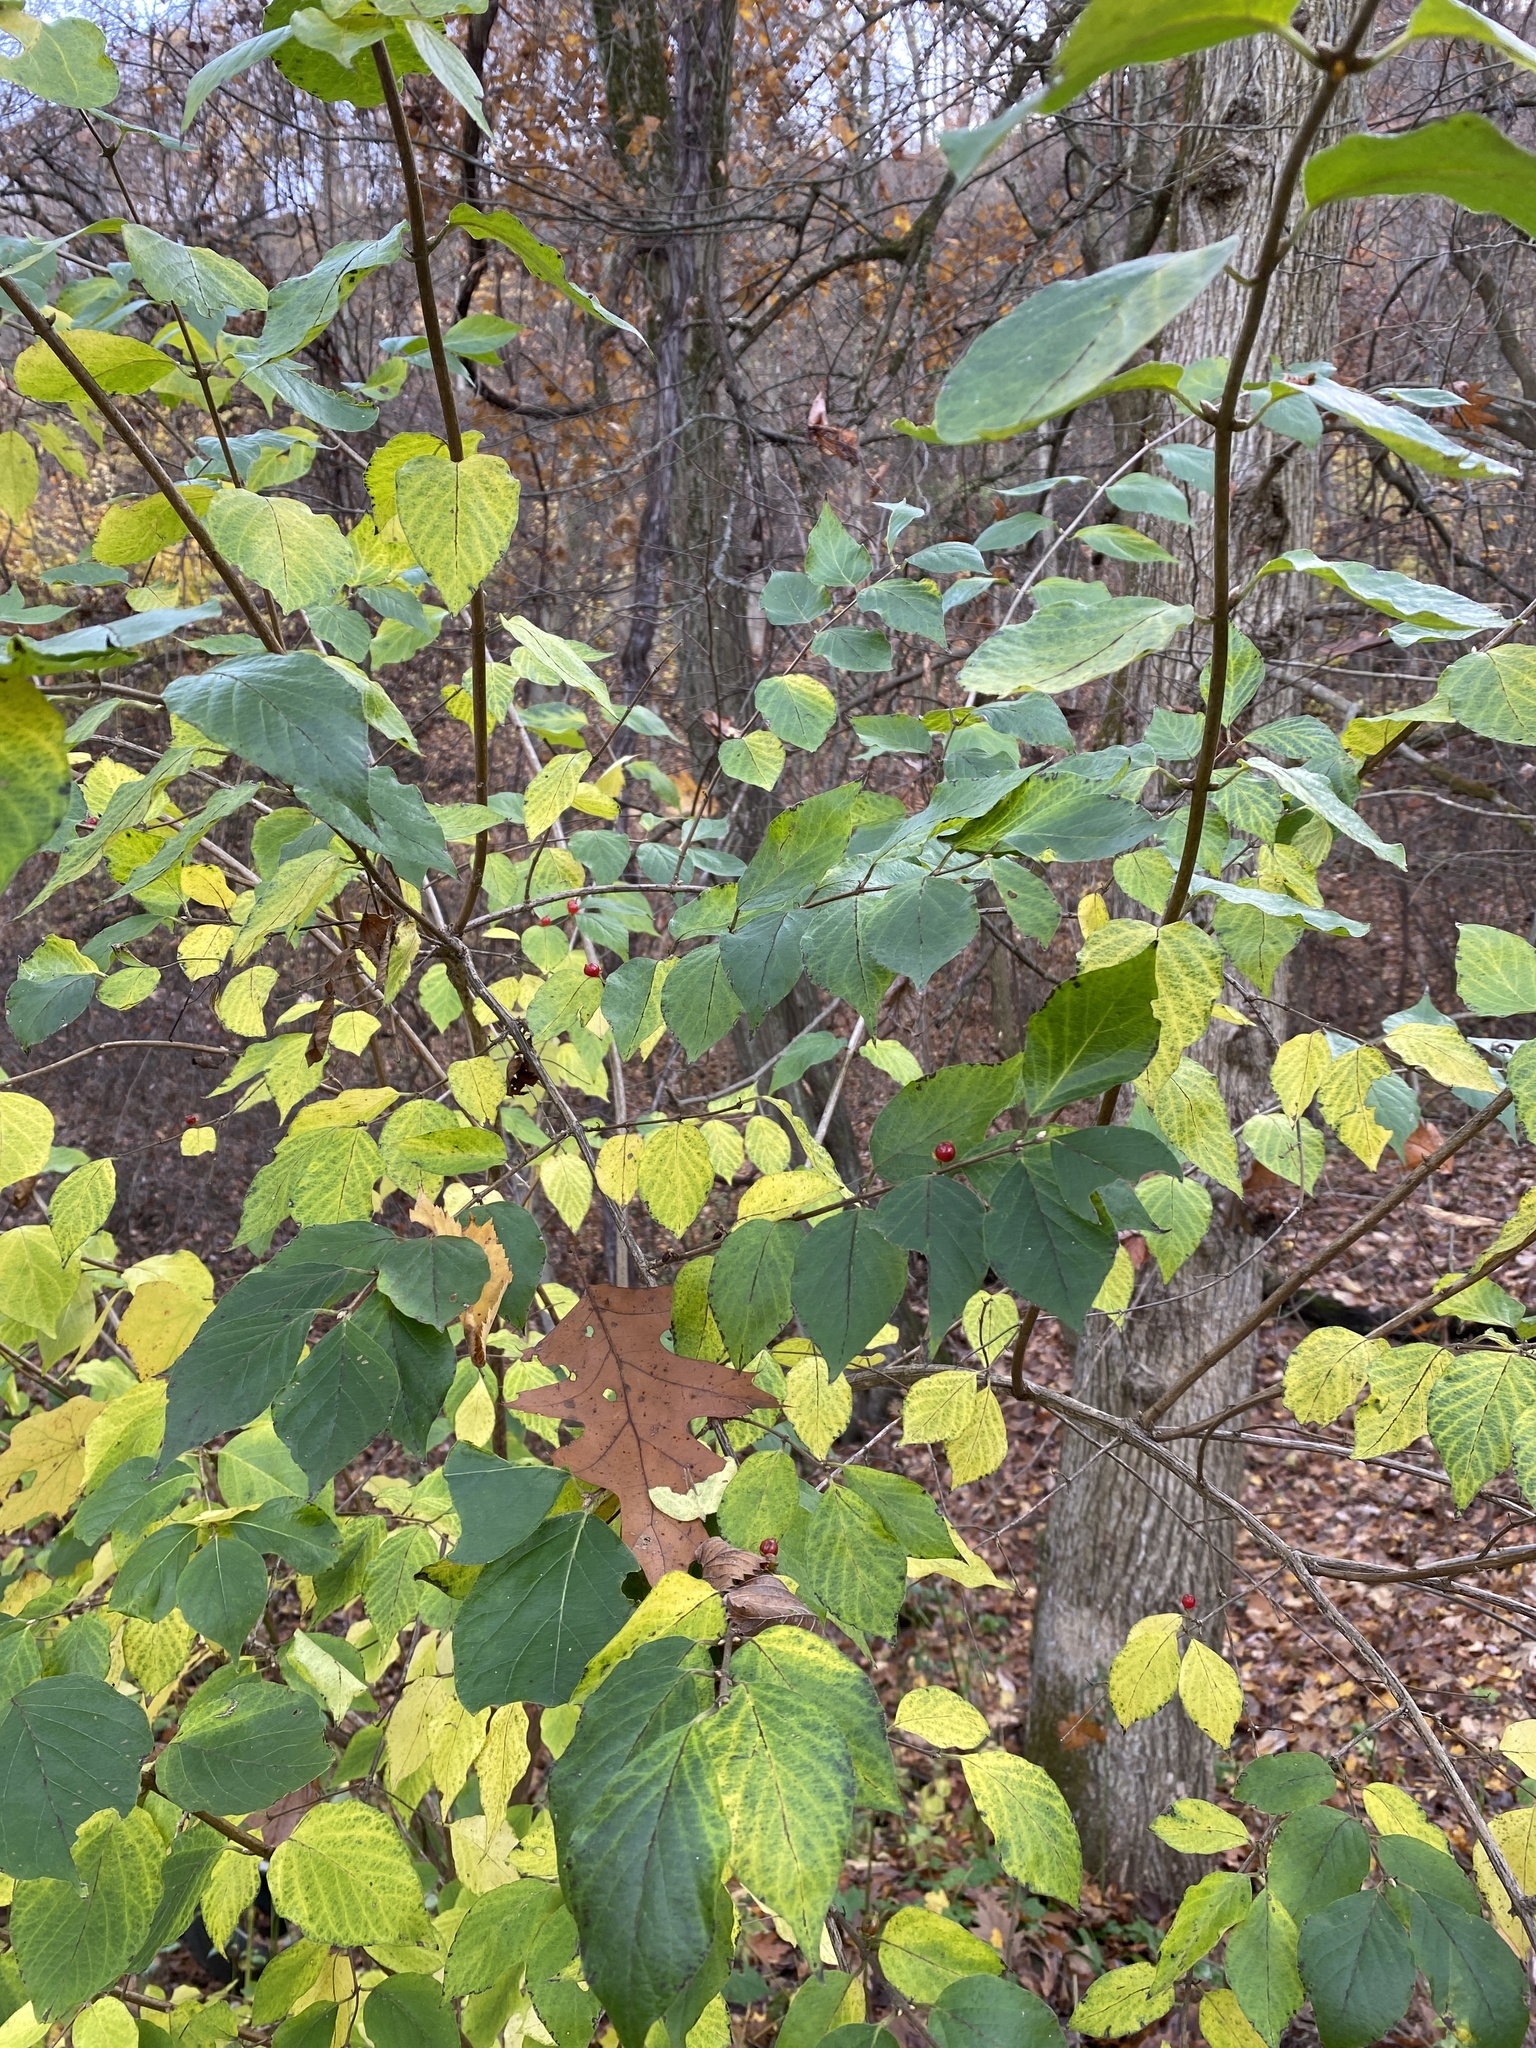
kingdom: Plantae
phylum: Tracheophyta
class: Magnoliopsida
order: Dipsacales
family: Caprifoliaceae
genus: Lonicera
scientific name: Lonicera maackii
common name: Amur honeysuckle
